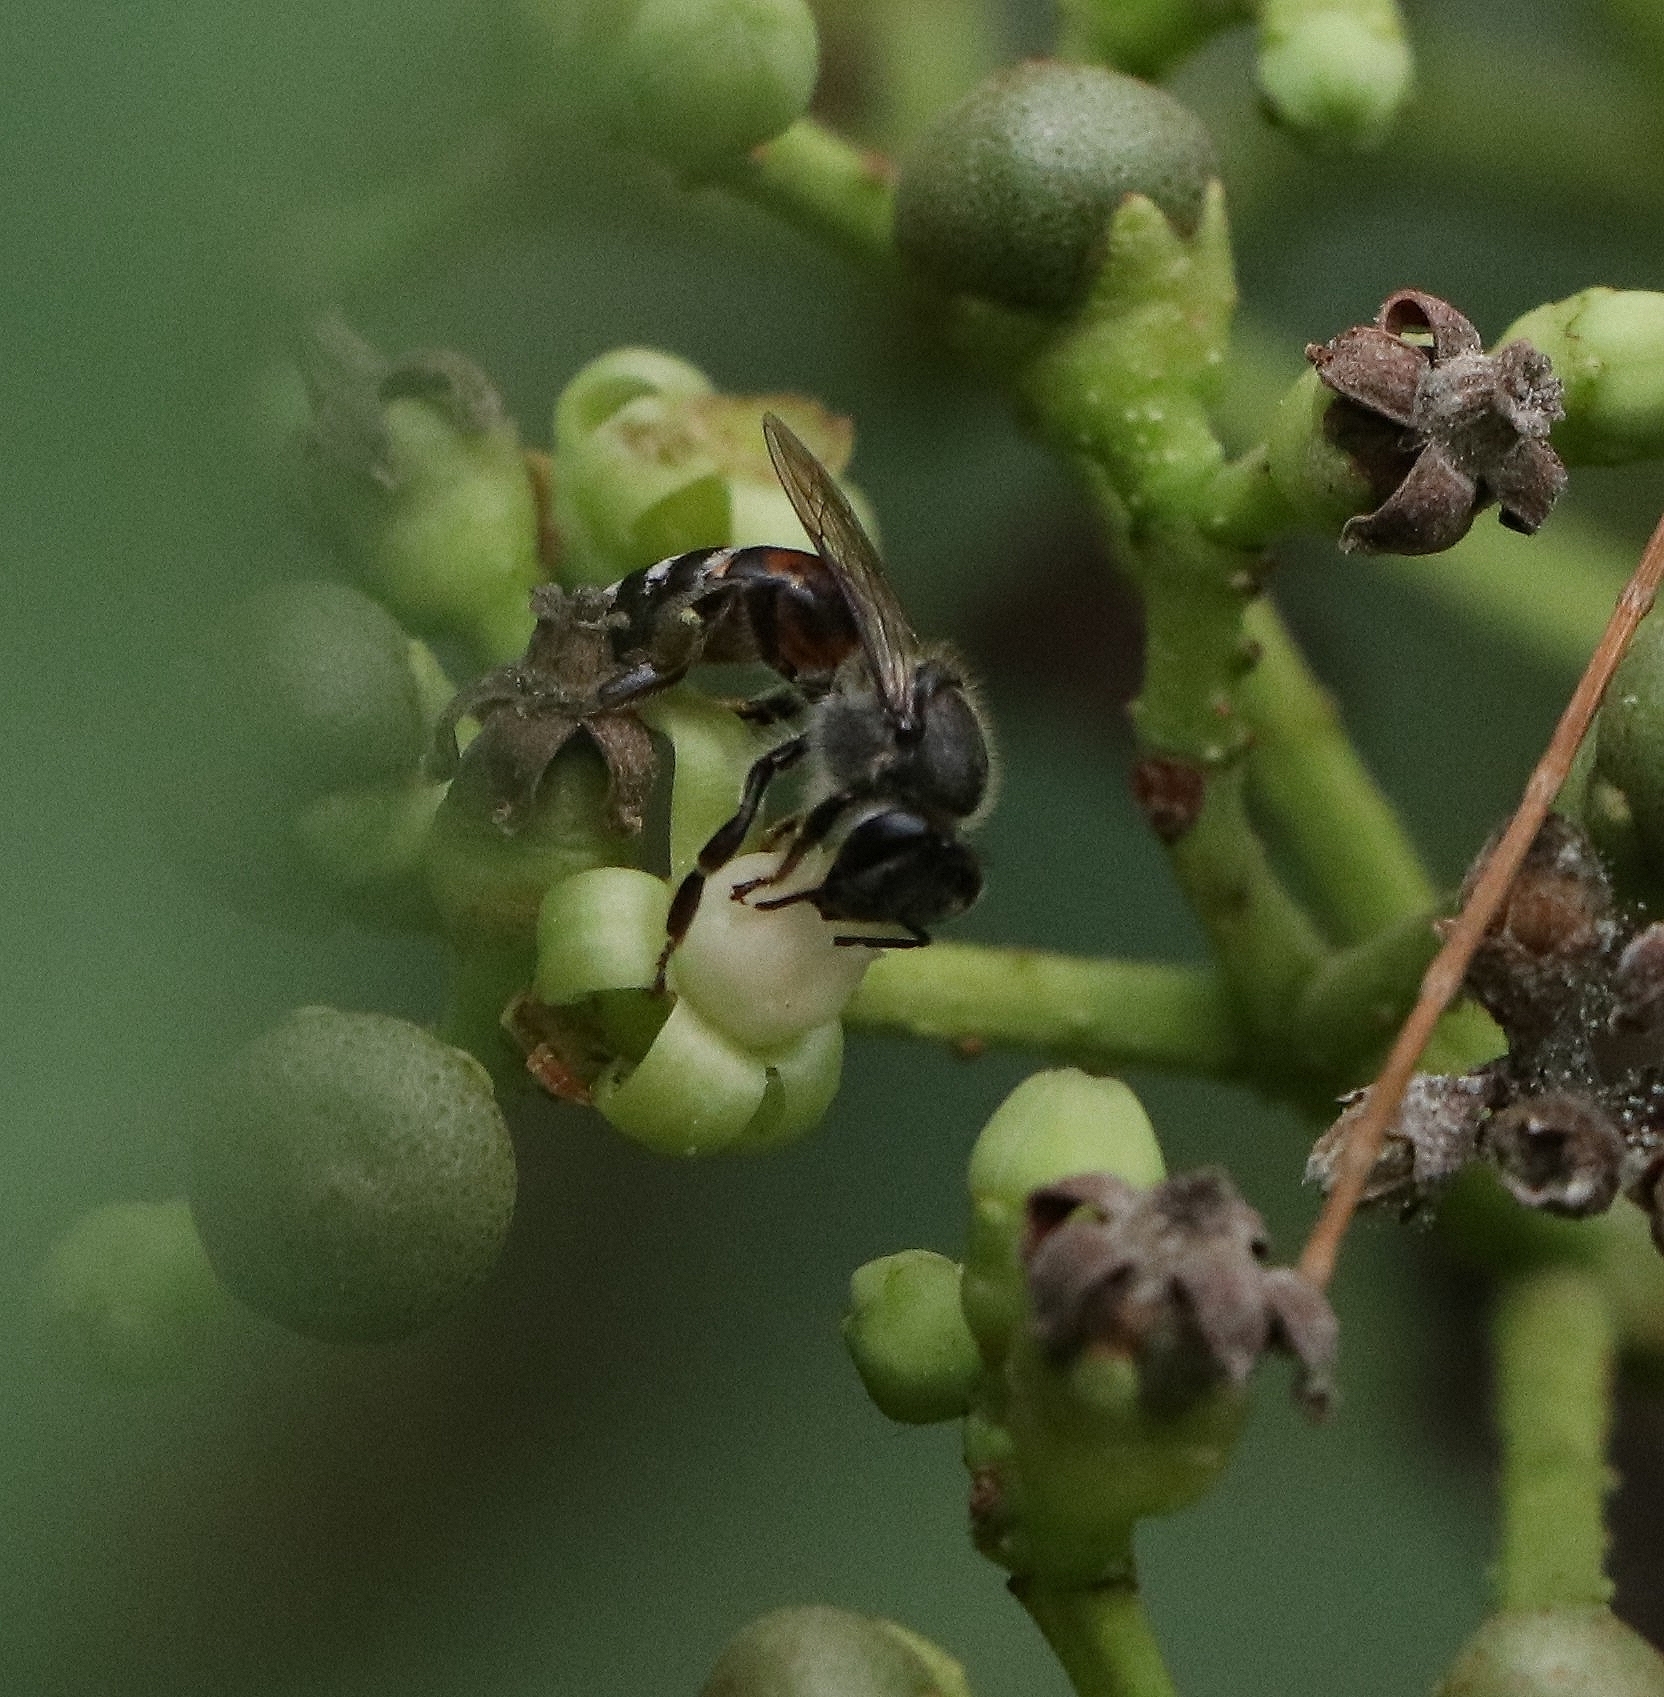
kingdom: Animalia
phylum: Arthropoda
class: Insecta
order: Hymenoptera
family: Apidae
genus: Apis
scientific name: Apis florea
